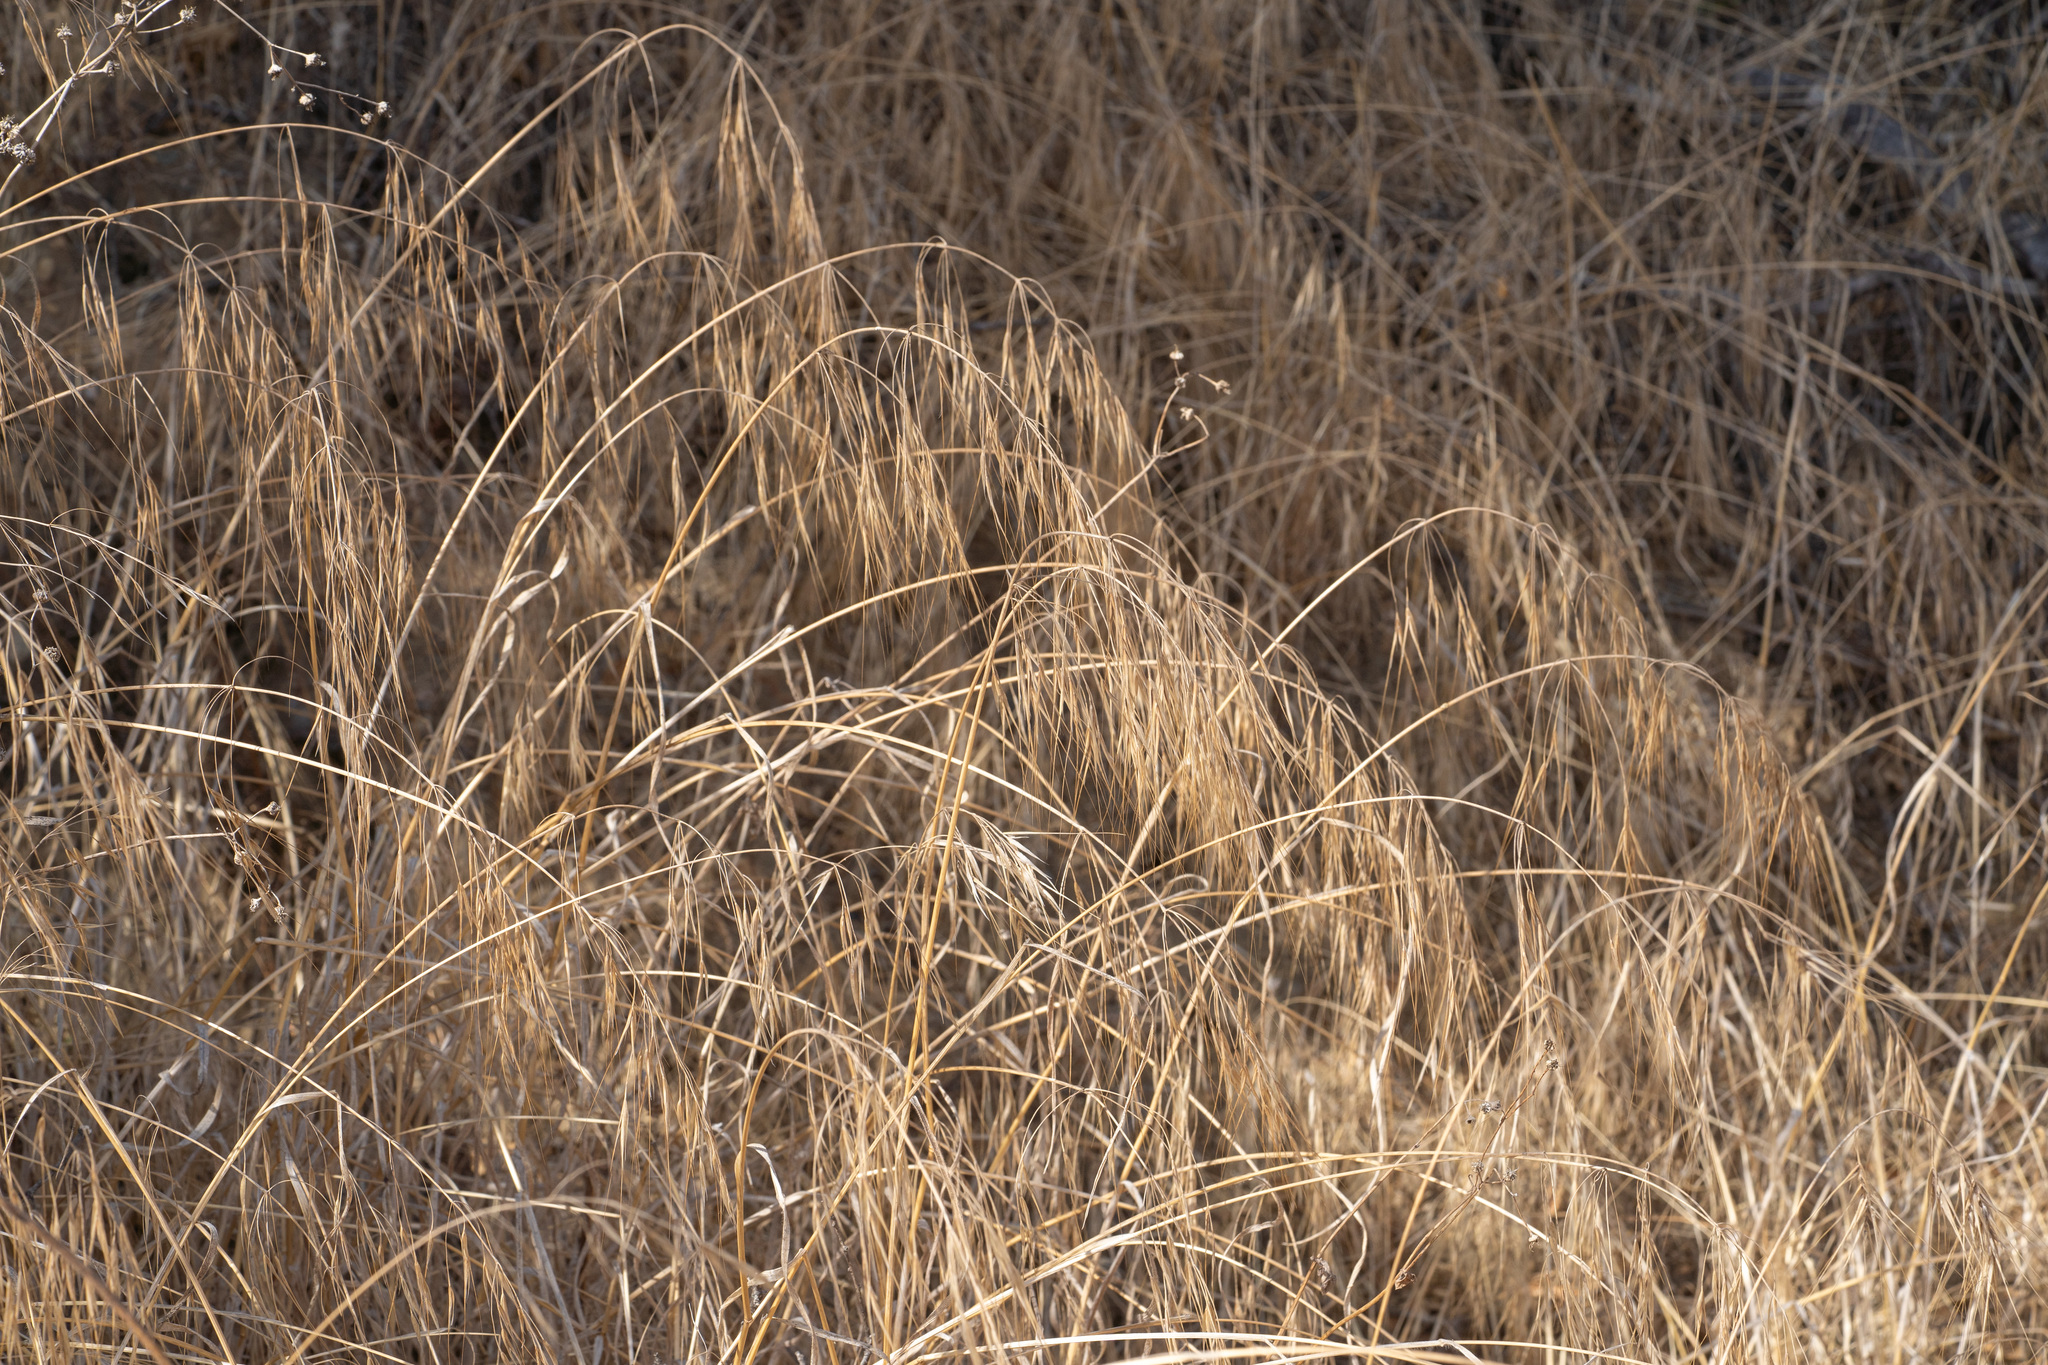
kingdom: Plantae
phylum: Tracheophyta
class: Liliopsida
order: Poales
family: Poaceae
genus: Bromus
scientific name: Bromus diandrus
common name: Ripgut brome
